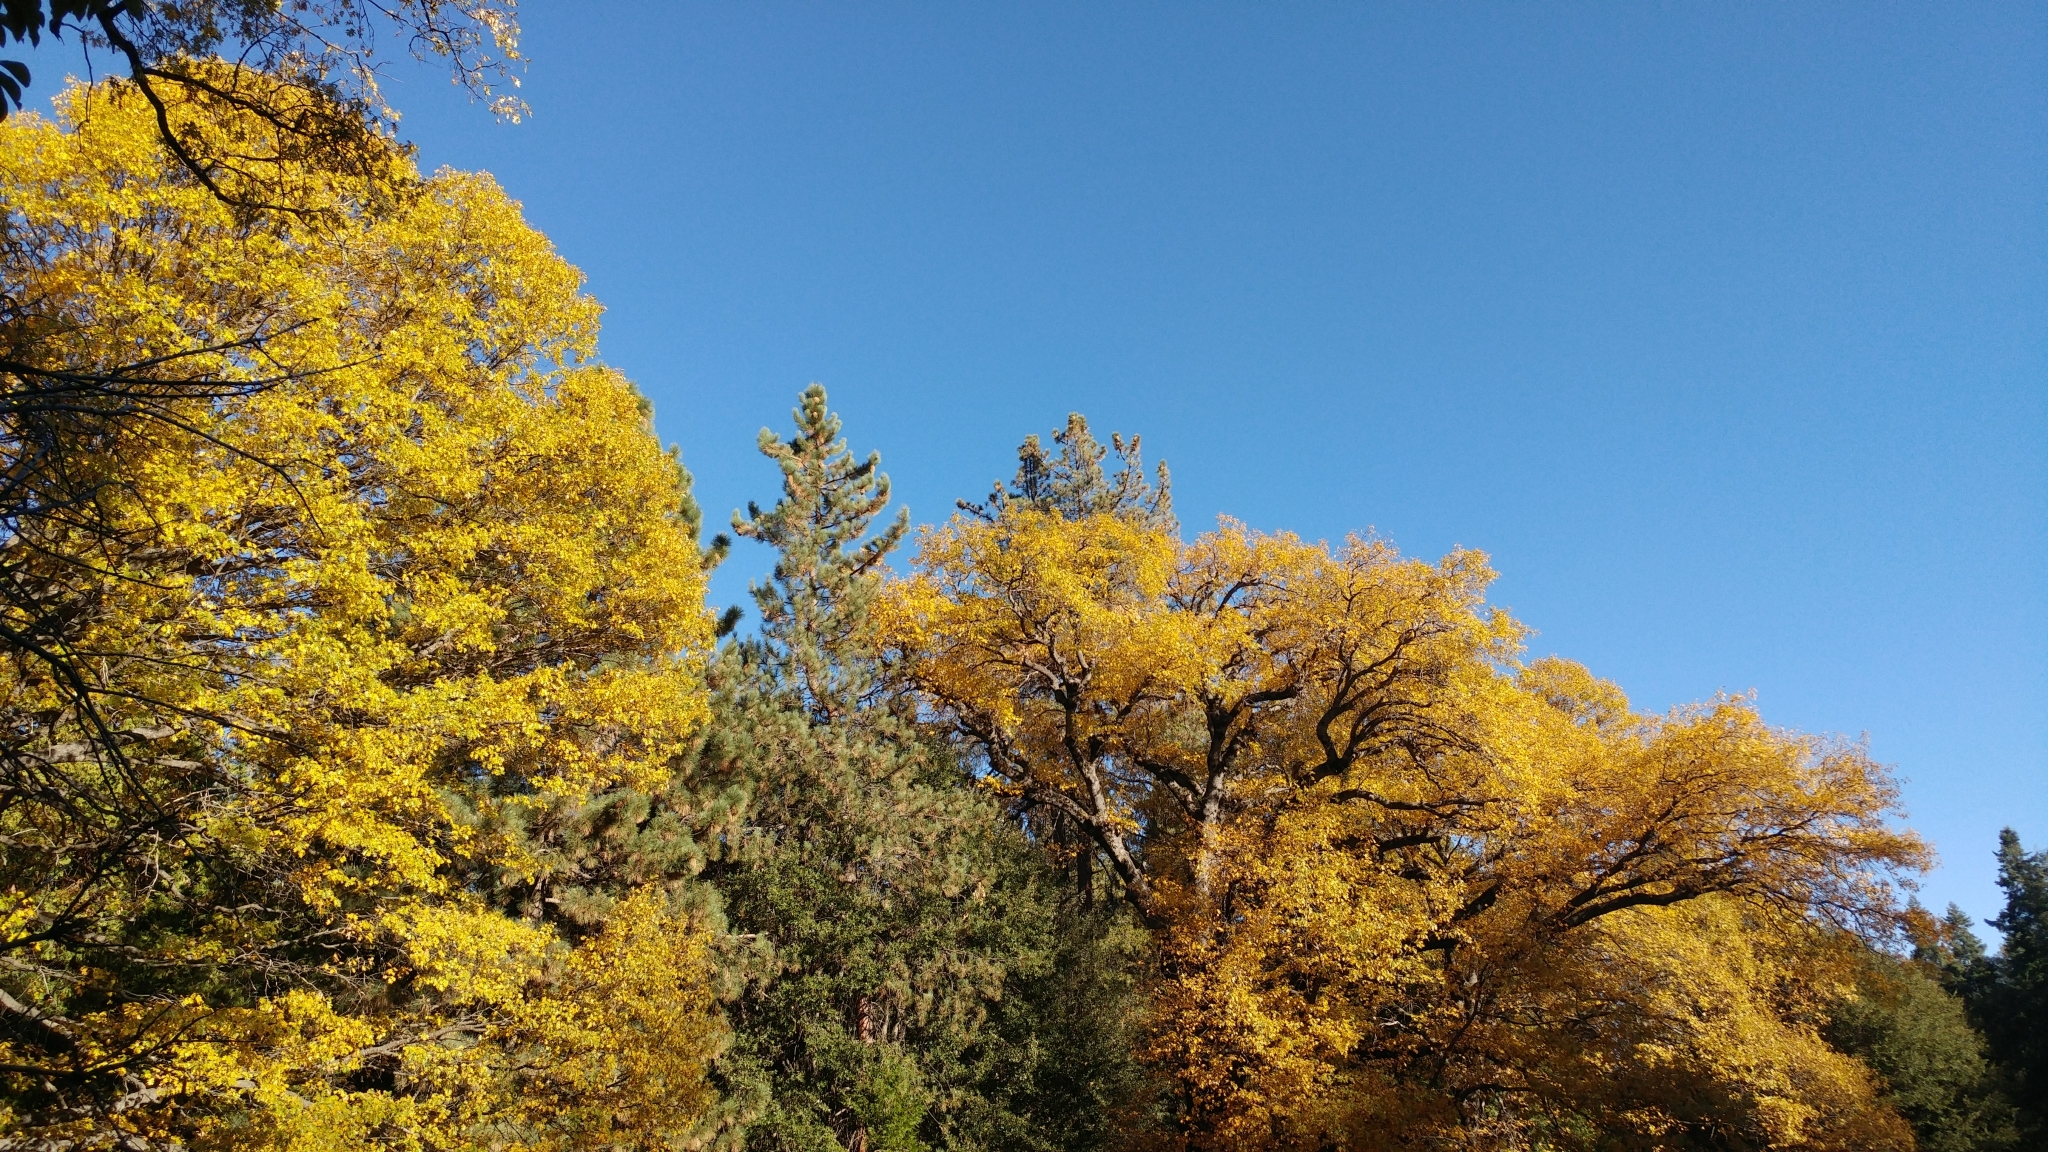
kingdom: Plantae
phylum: Tracheophyta
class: Magnoliopsida
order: Fagales
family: Fagaceae
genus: Quercus
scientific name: Quercus kelloggii
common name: California black oak
